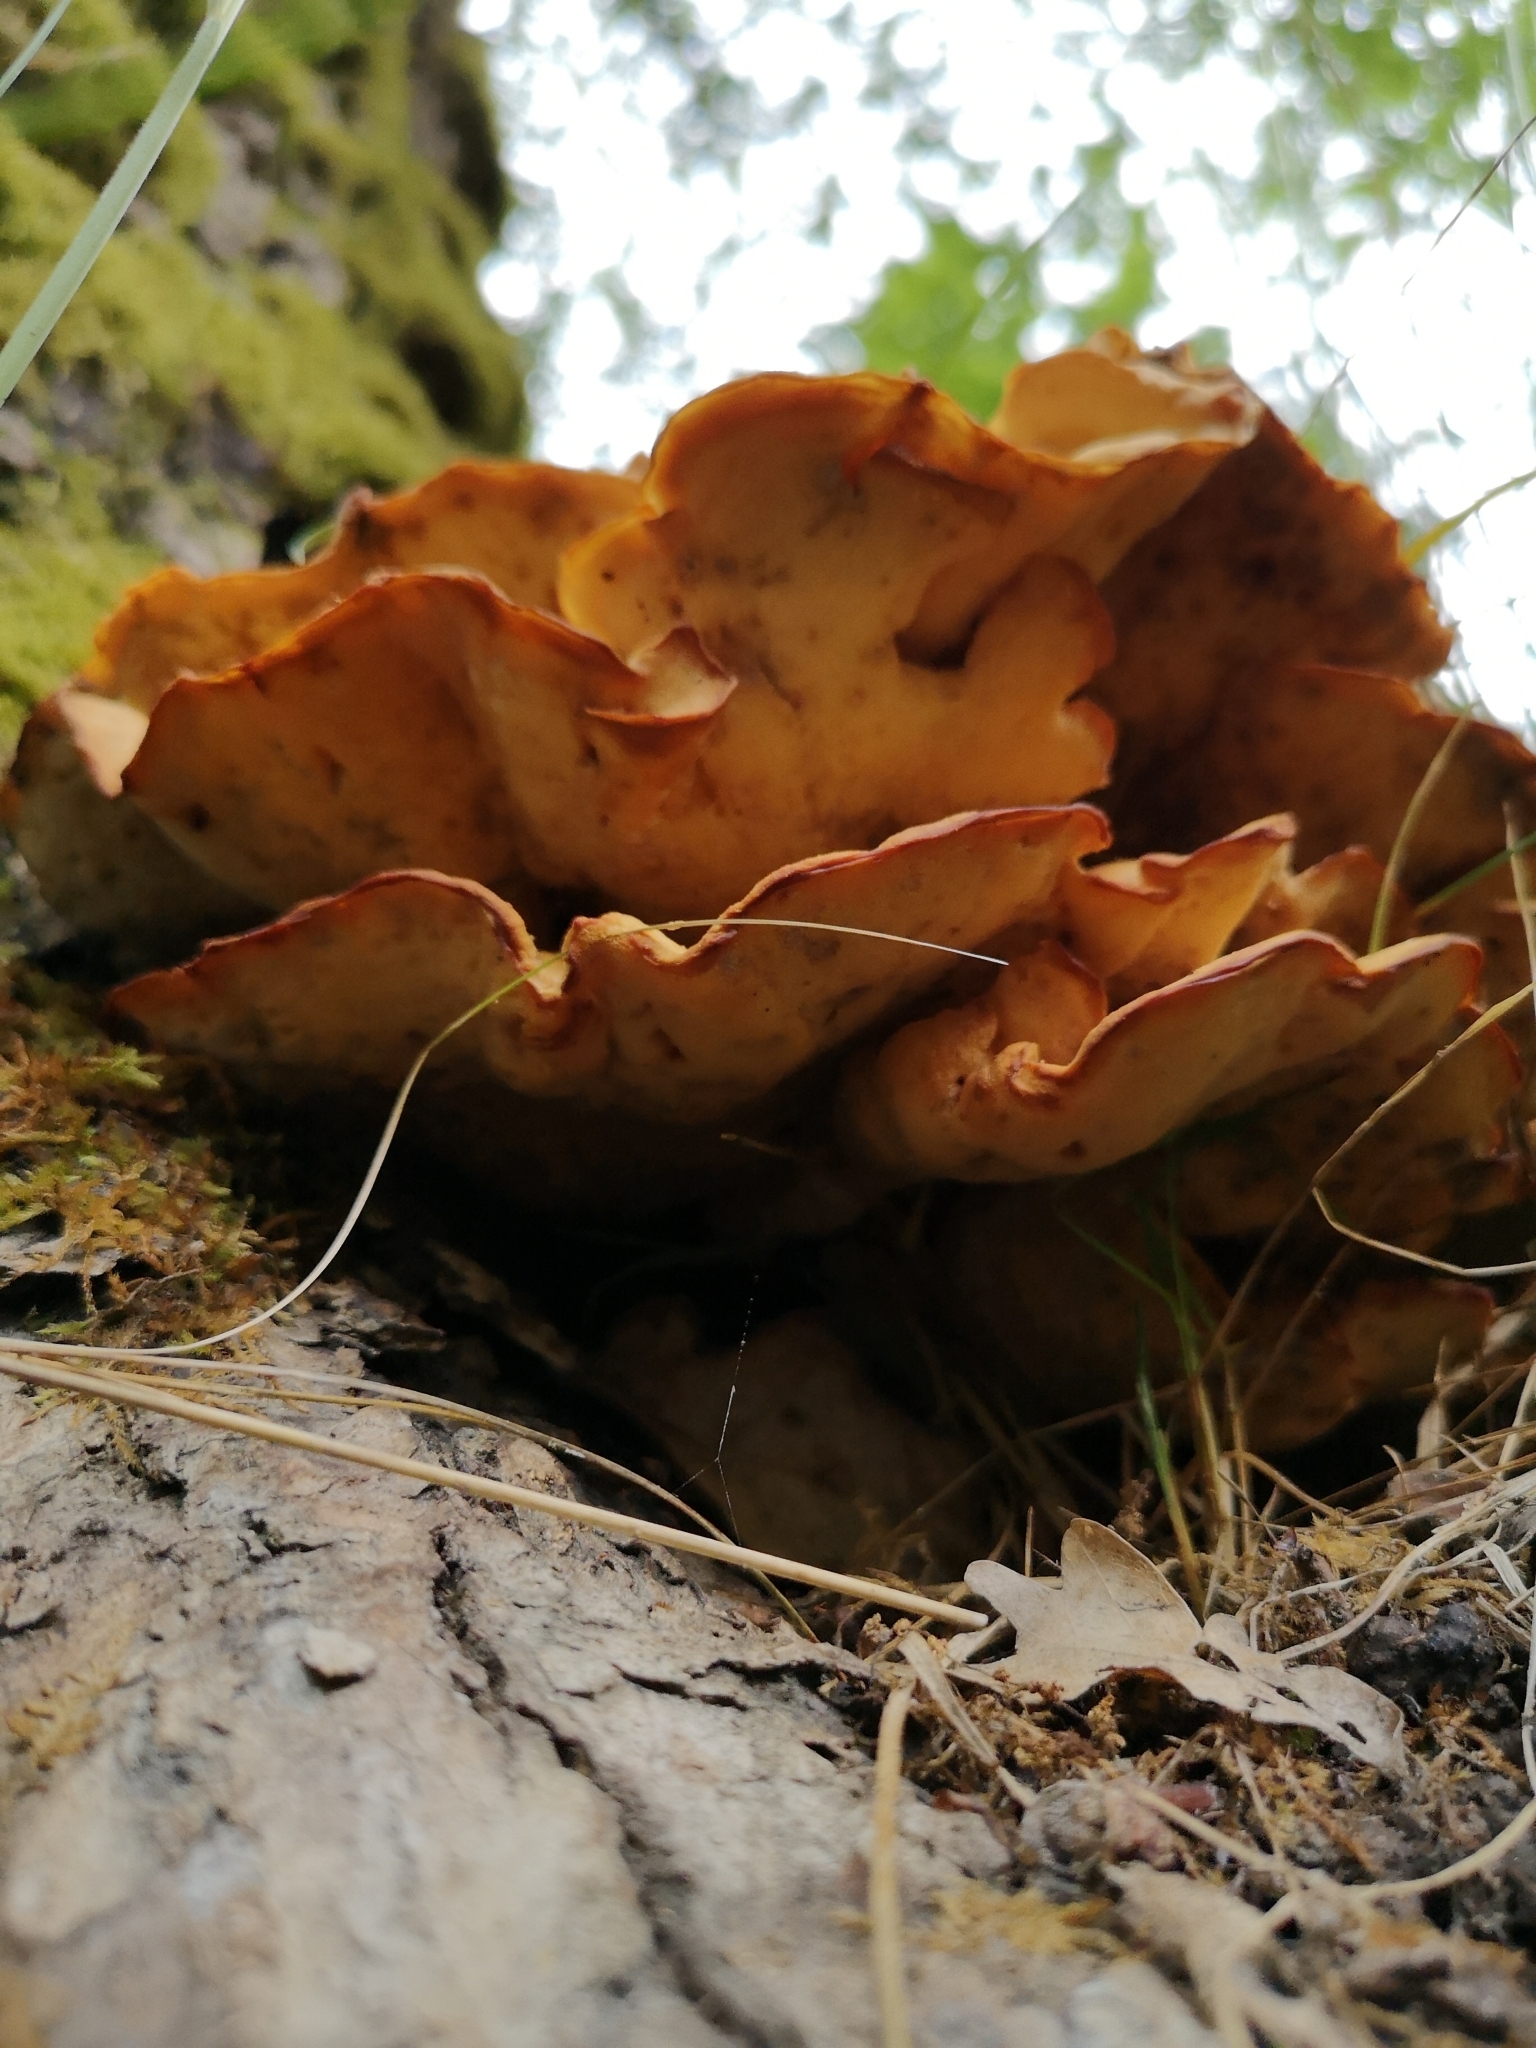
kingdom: Fungi
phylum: Basidiomycota
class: Agaricomycetes
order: Polyporales
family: Laetiporaceae
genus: Laetiporus
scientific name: Laetiporus sulphureus
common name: Chicken of the woods
